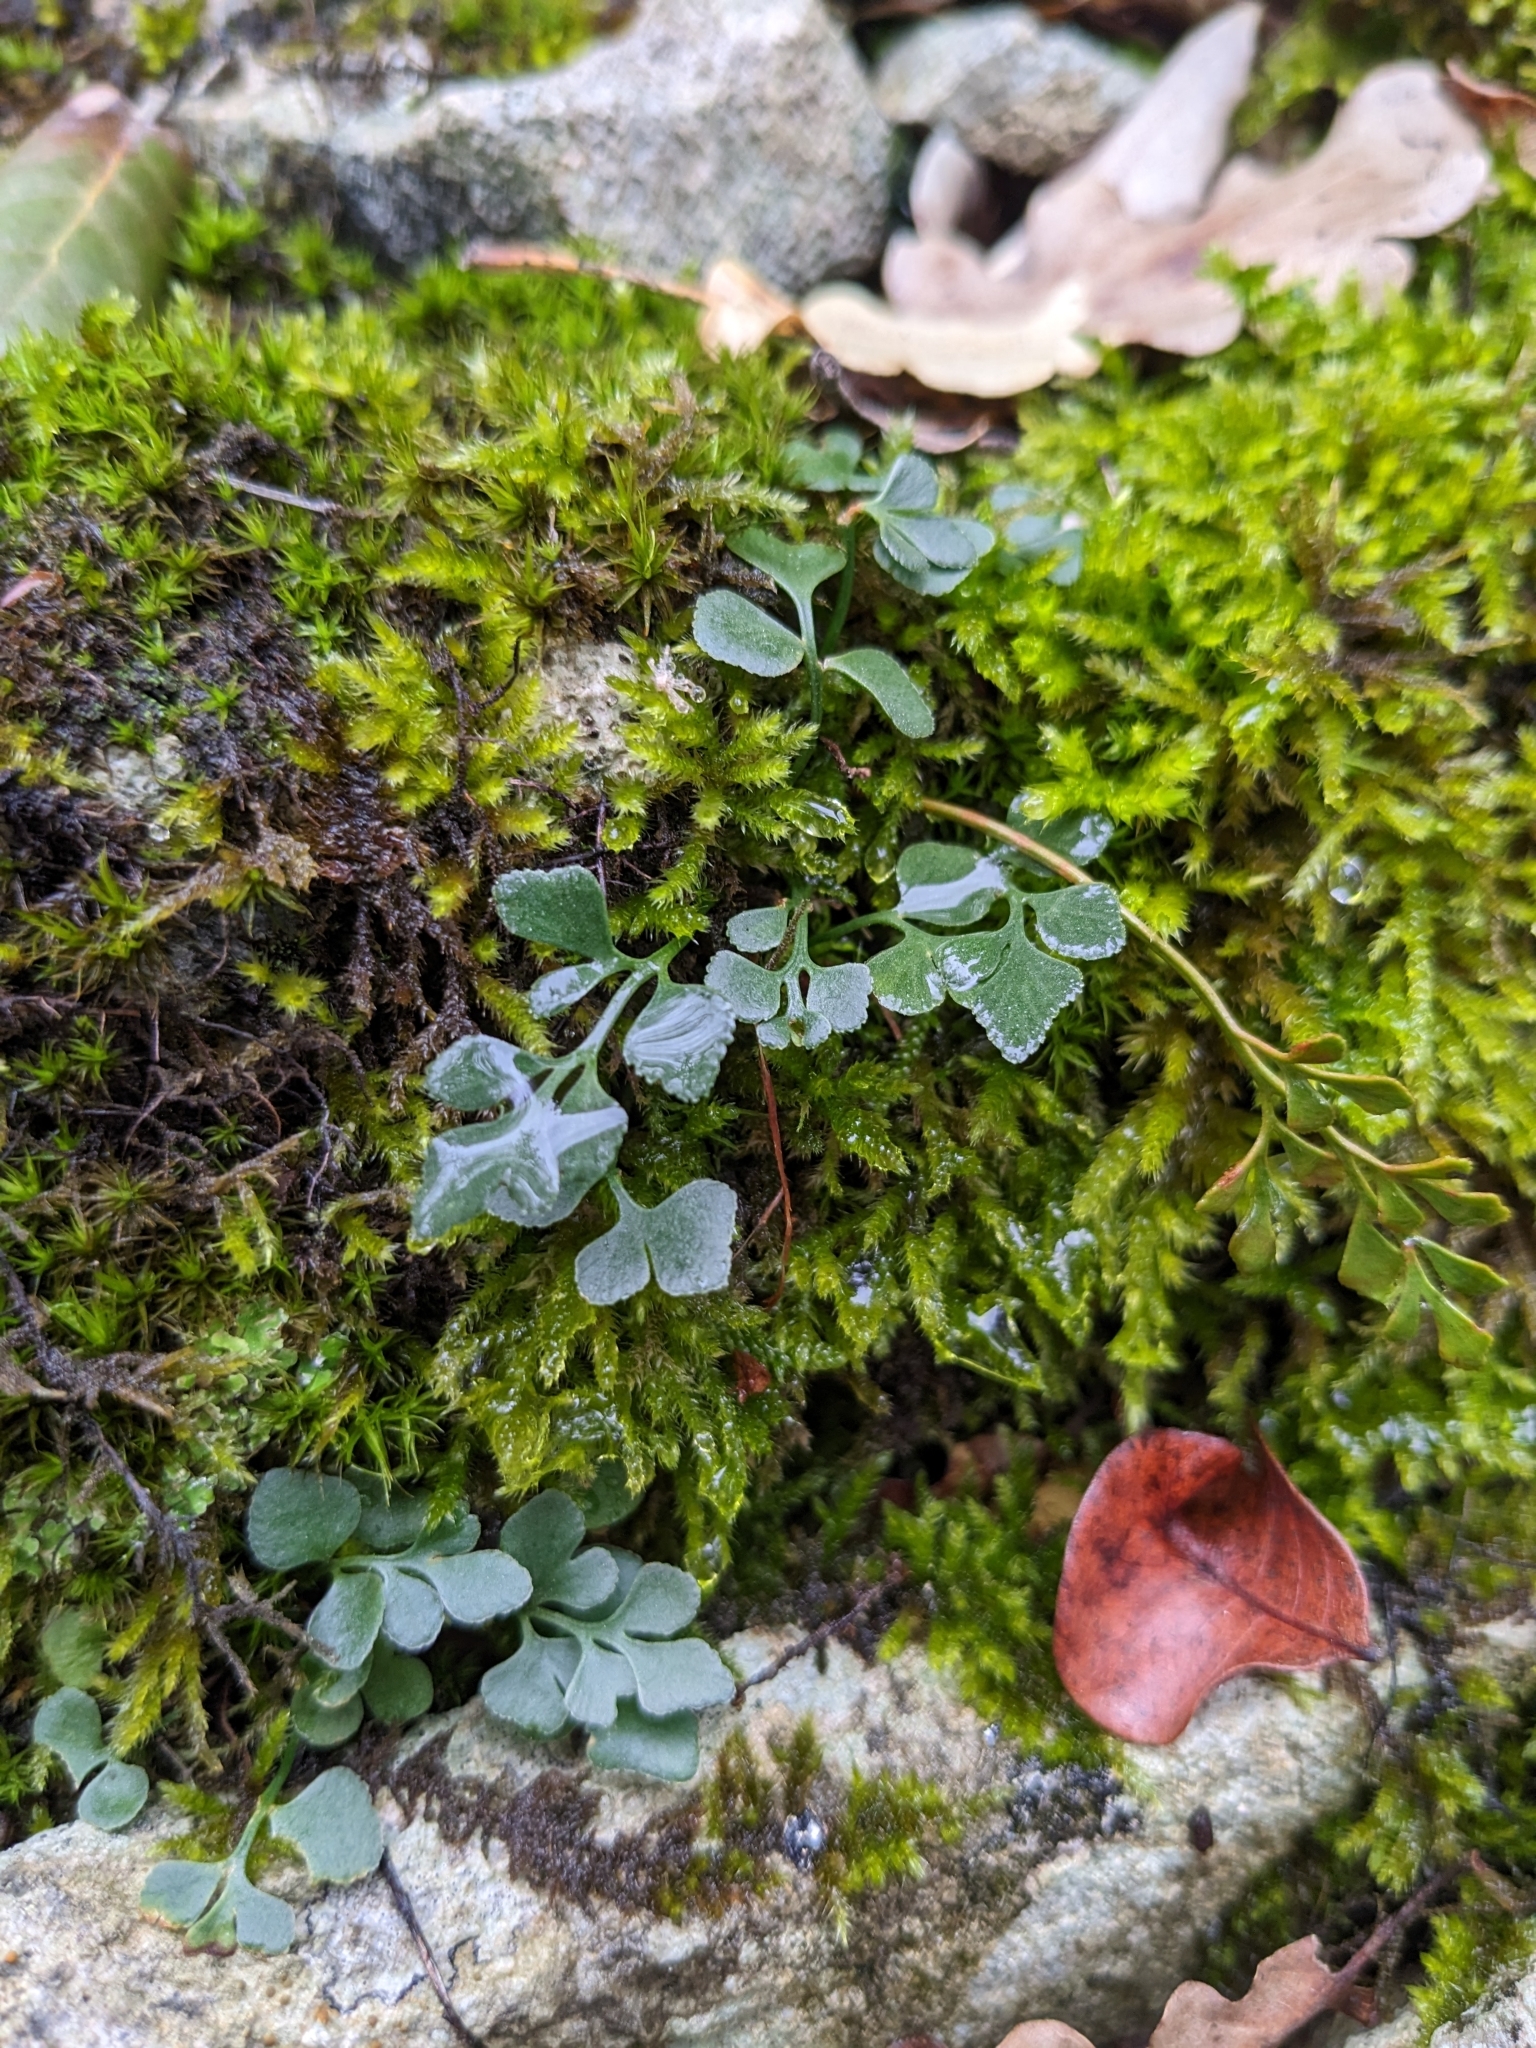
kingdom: Plantae
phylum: Tracheophyta
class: Polypodiopsida
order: Polypodiales
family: Aspleniaceae
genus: Asplenium
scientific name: Asplenium ruta-muraria
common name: Wall-rue
